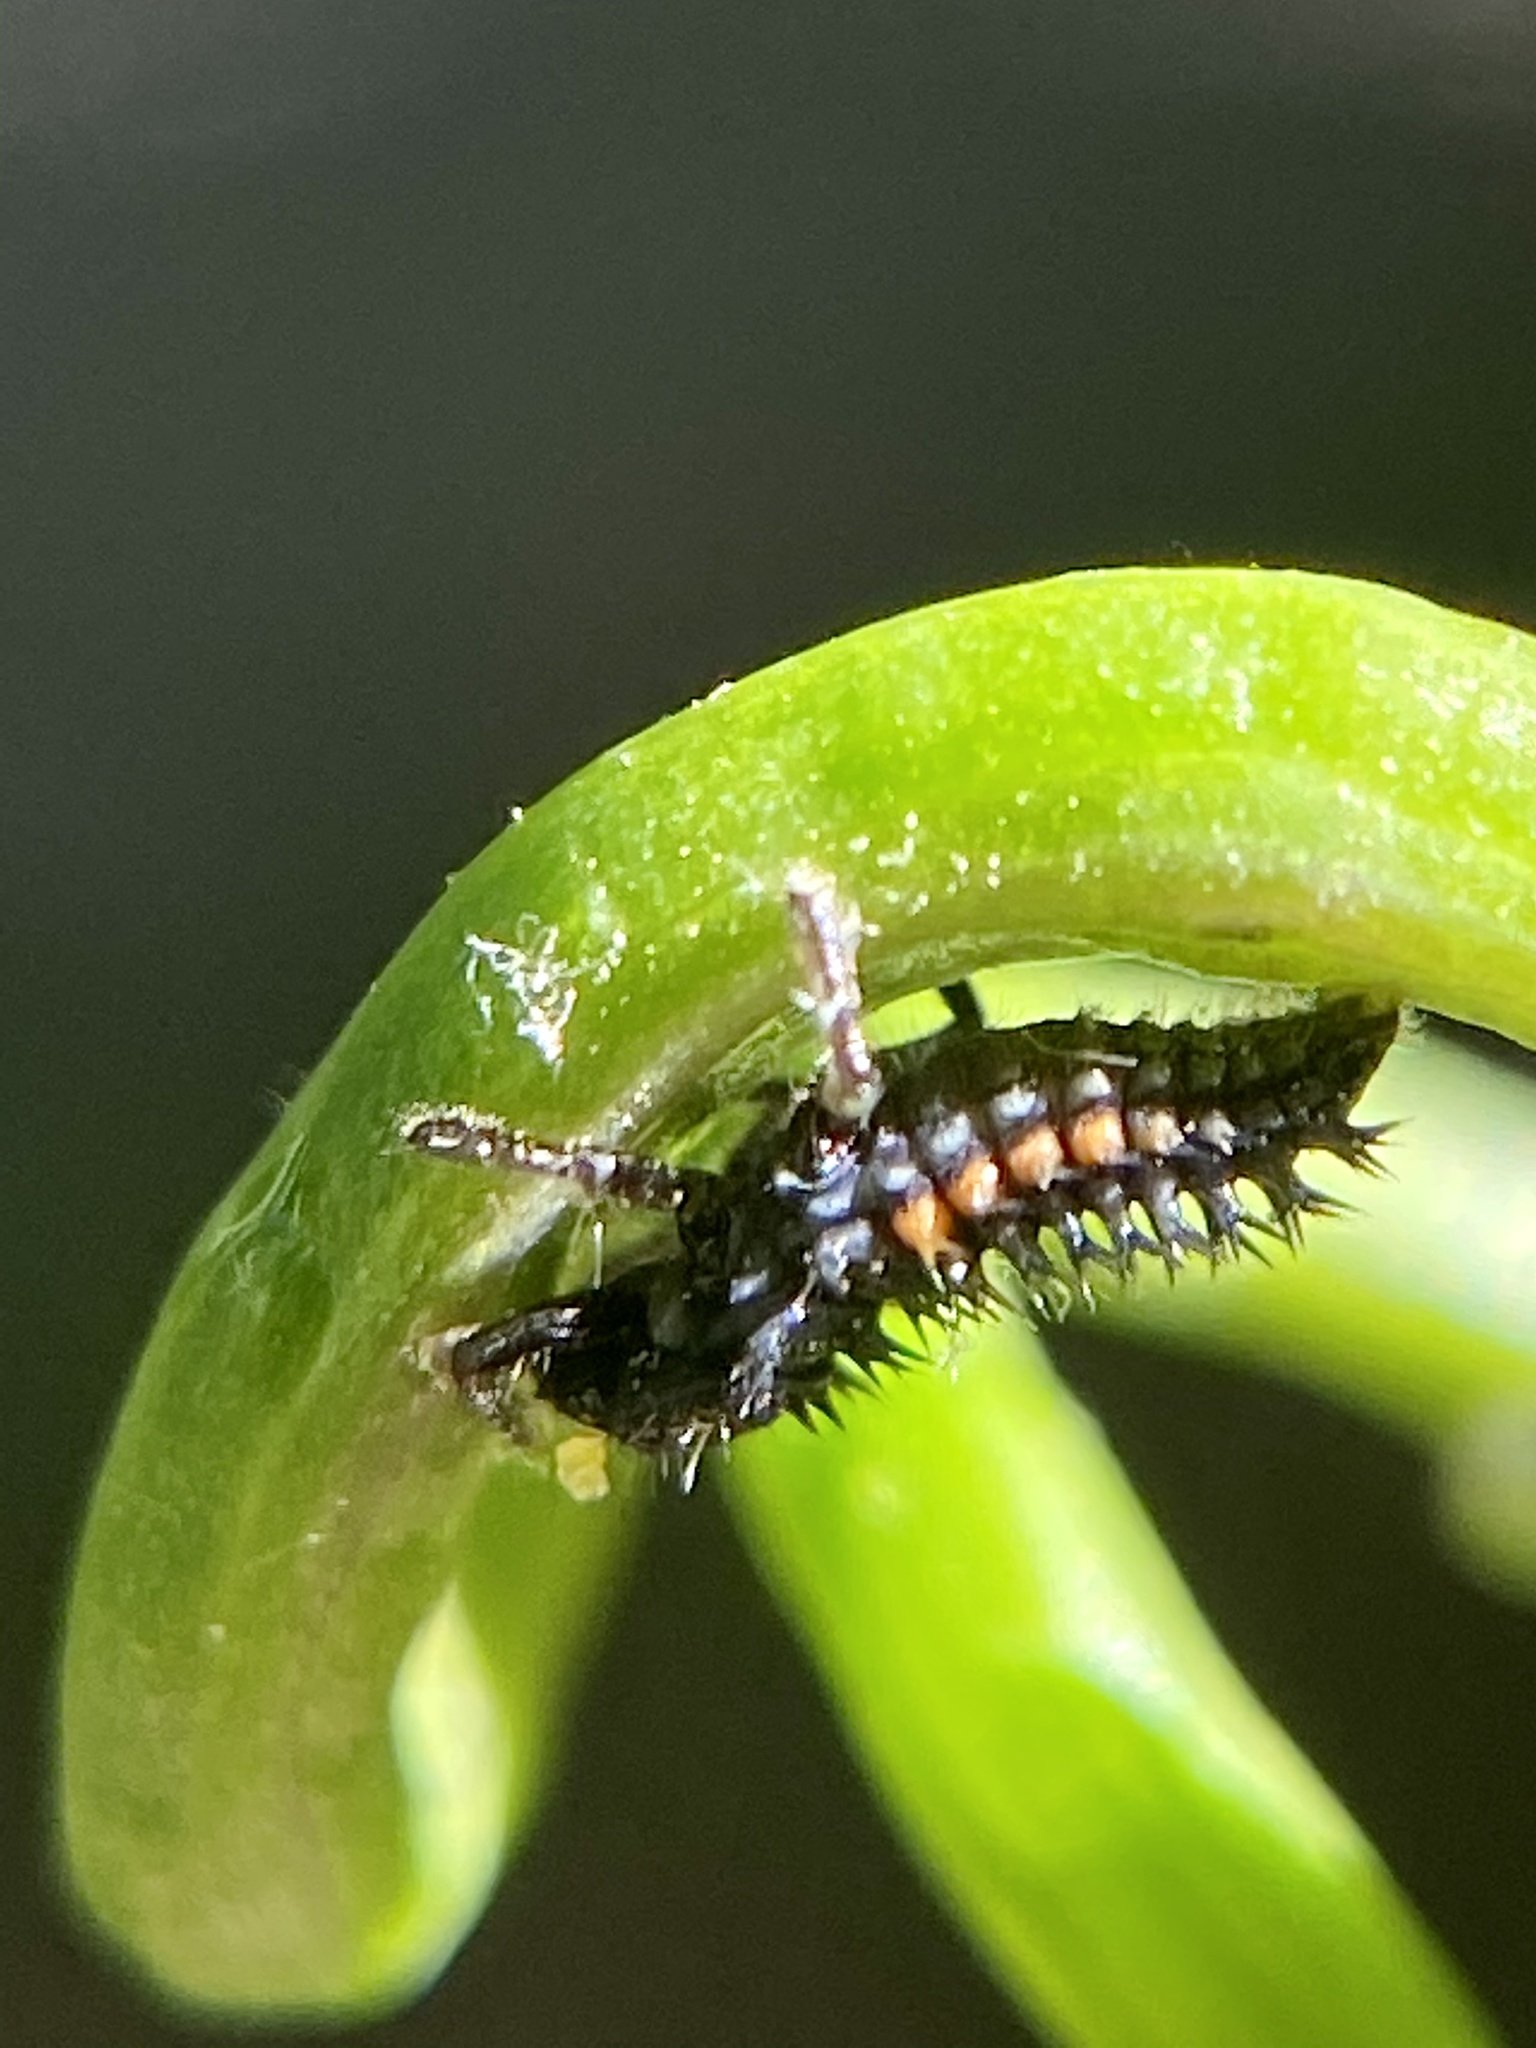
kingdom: Animalia
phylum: Arthropoda
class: Insecta
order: Coleoptera
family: Coccinellidae
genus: Harmonia
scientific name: Harmonia axyridis
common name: Harlequin ladybird
